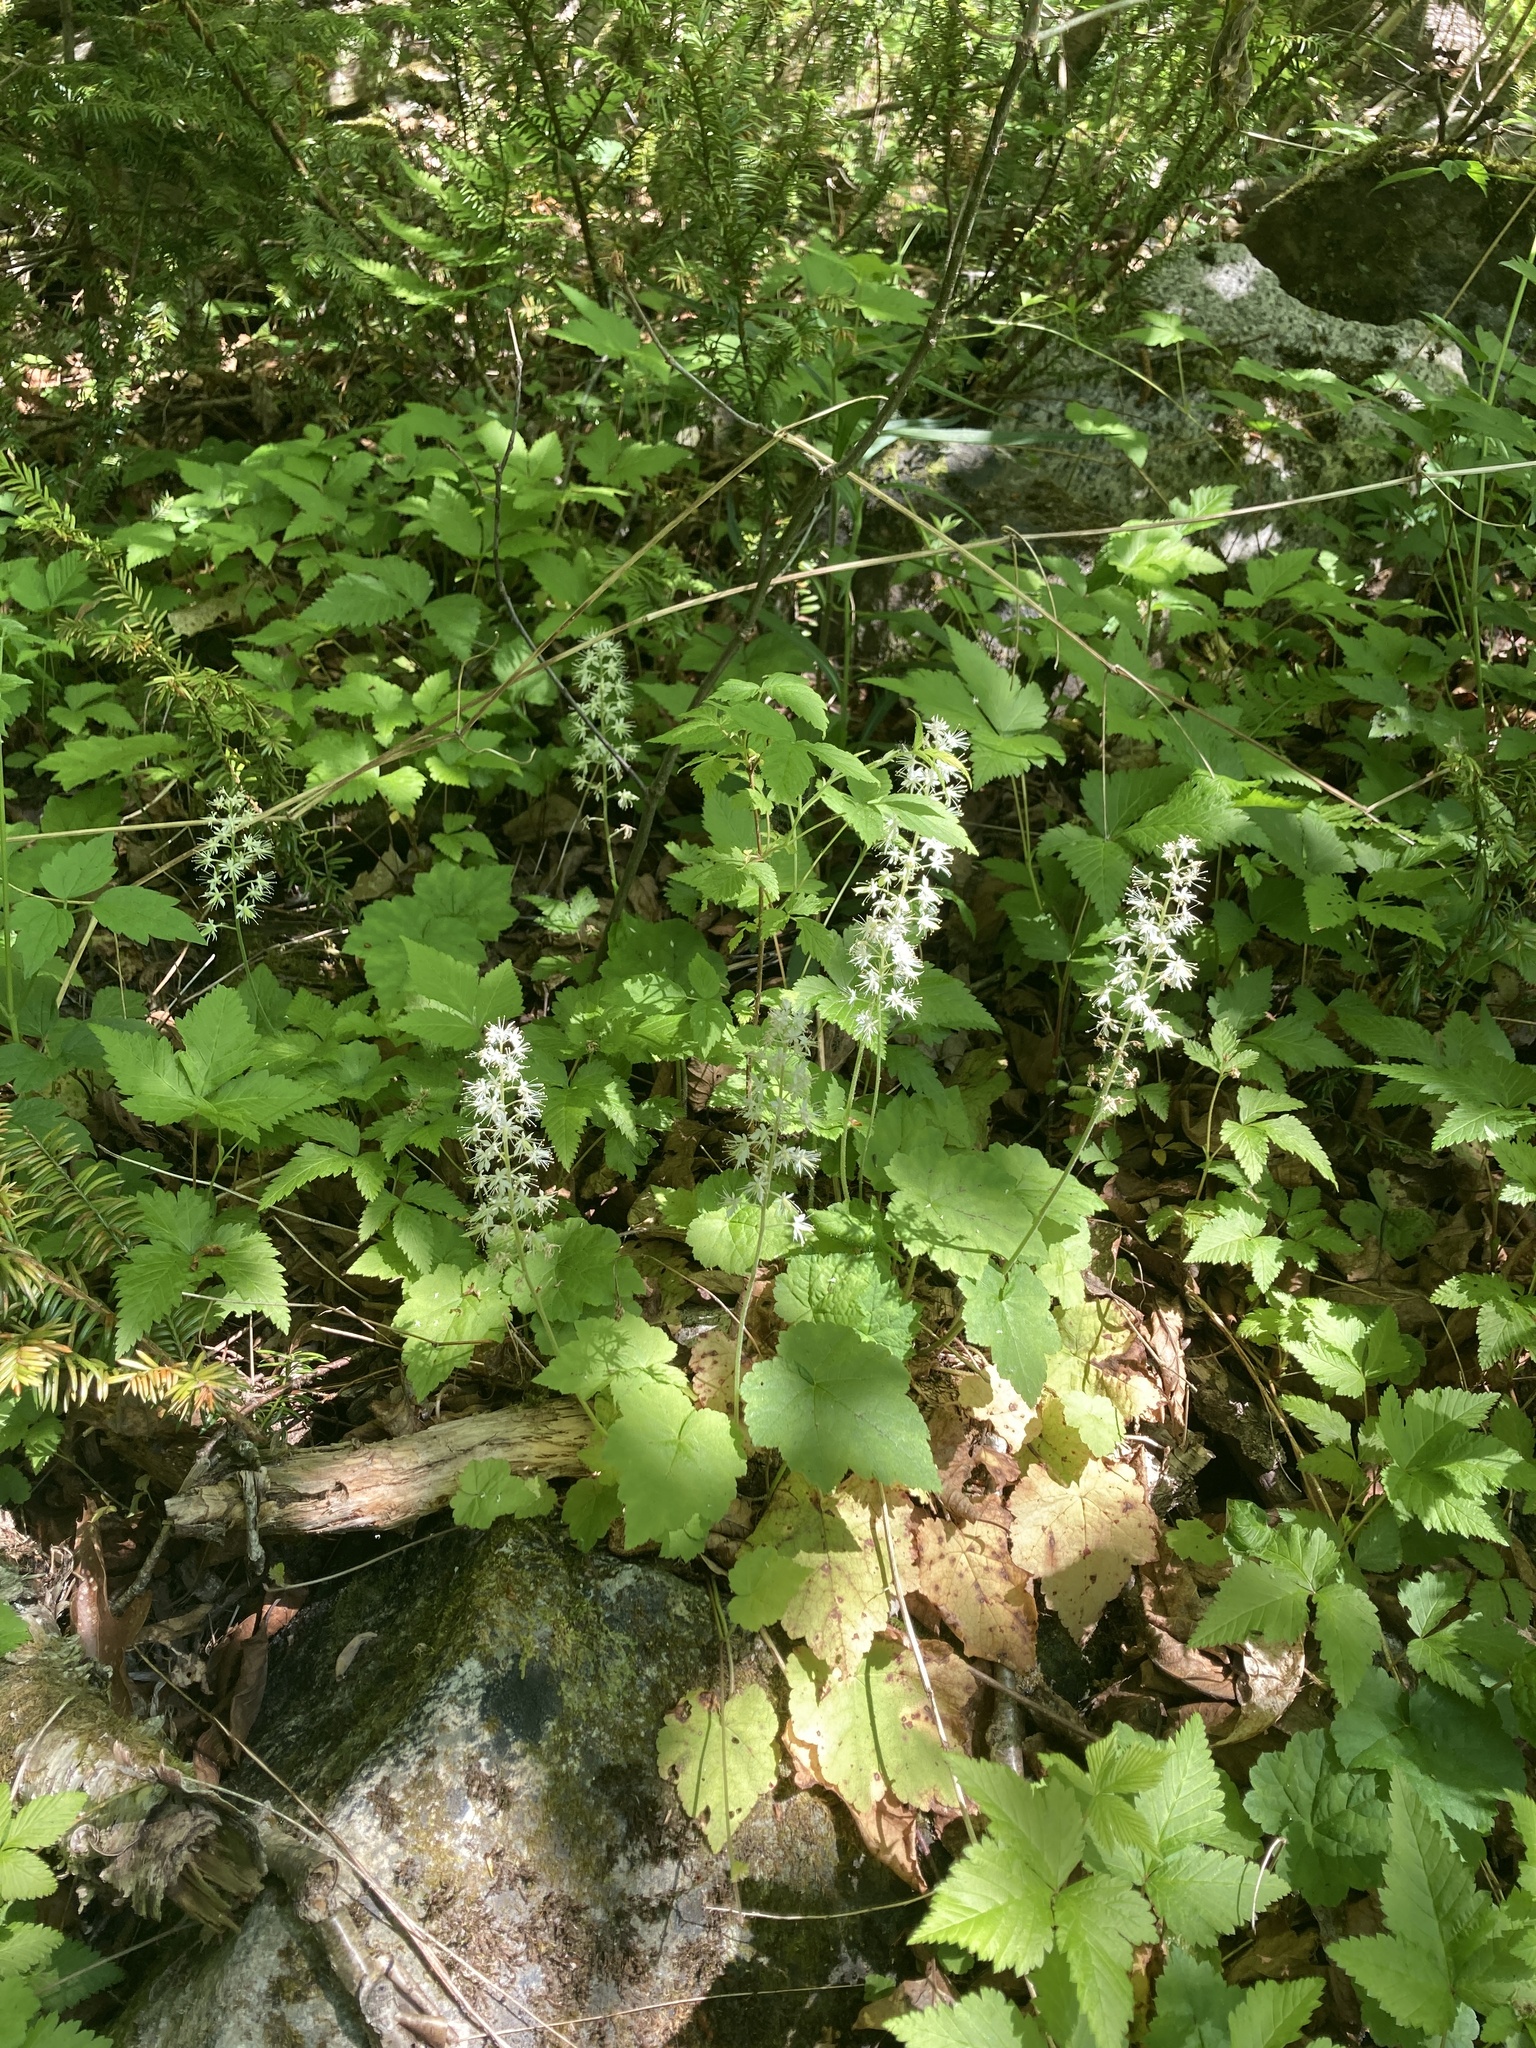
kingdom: Plantae
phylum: Tracheophyta
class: Magnoliopsida
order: Saxifragales
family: Saxifragaceae
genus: Tiarella
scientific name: Tiarella stolonifera
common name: Stoloniferous foamflower
